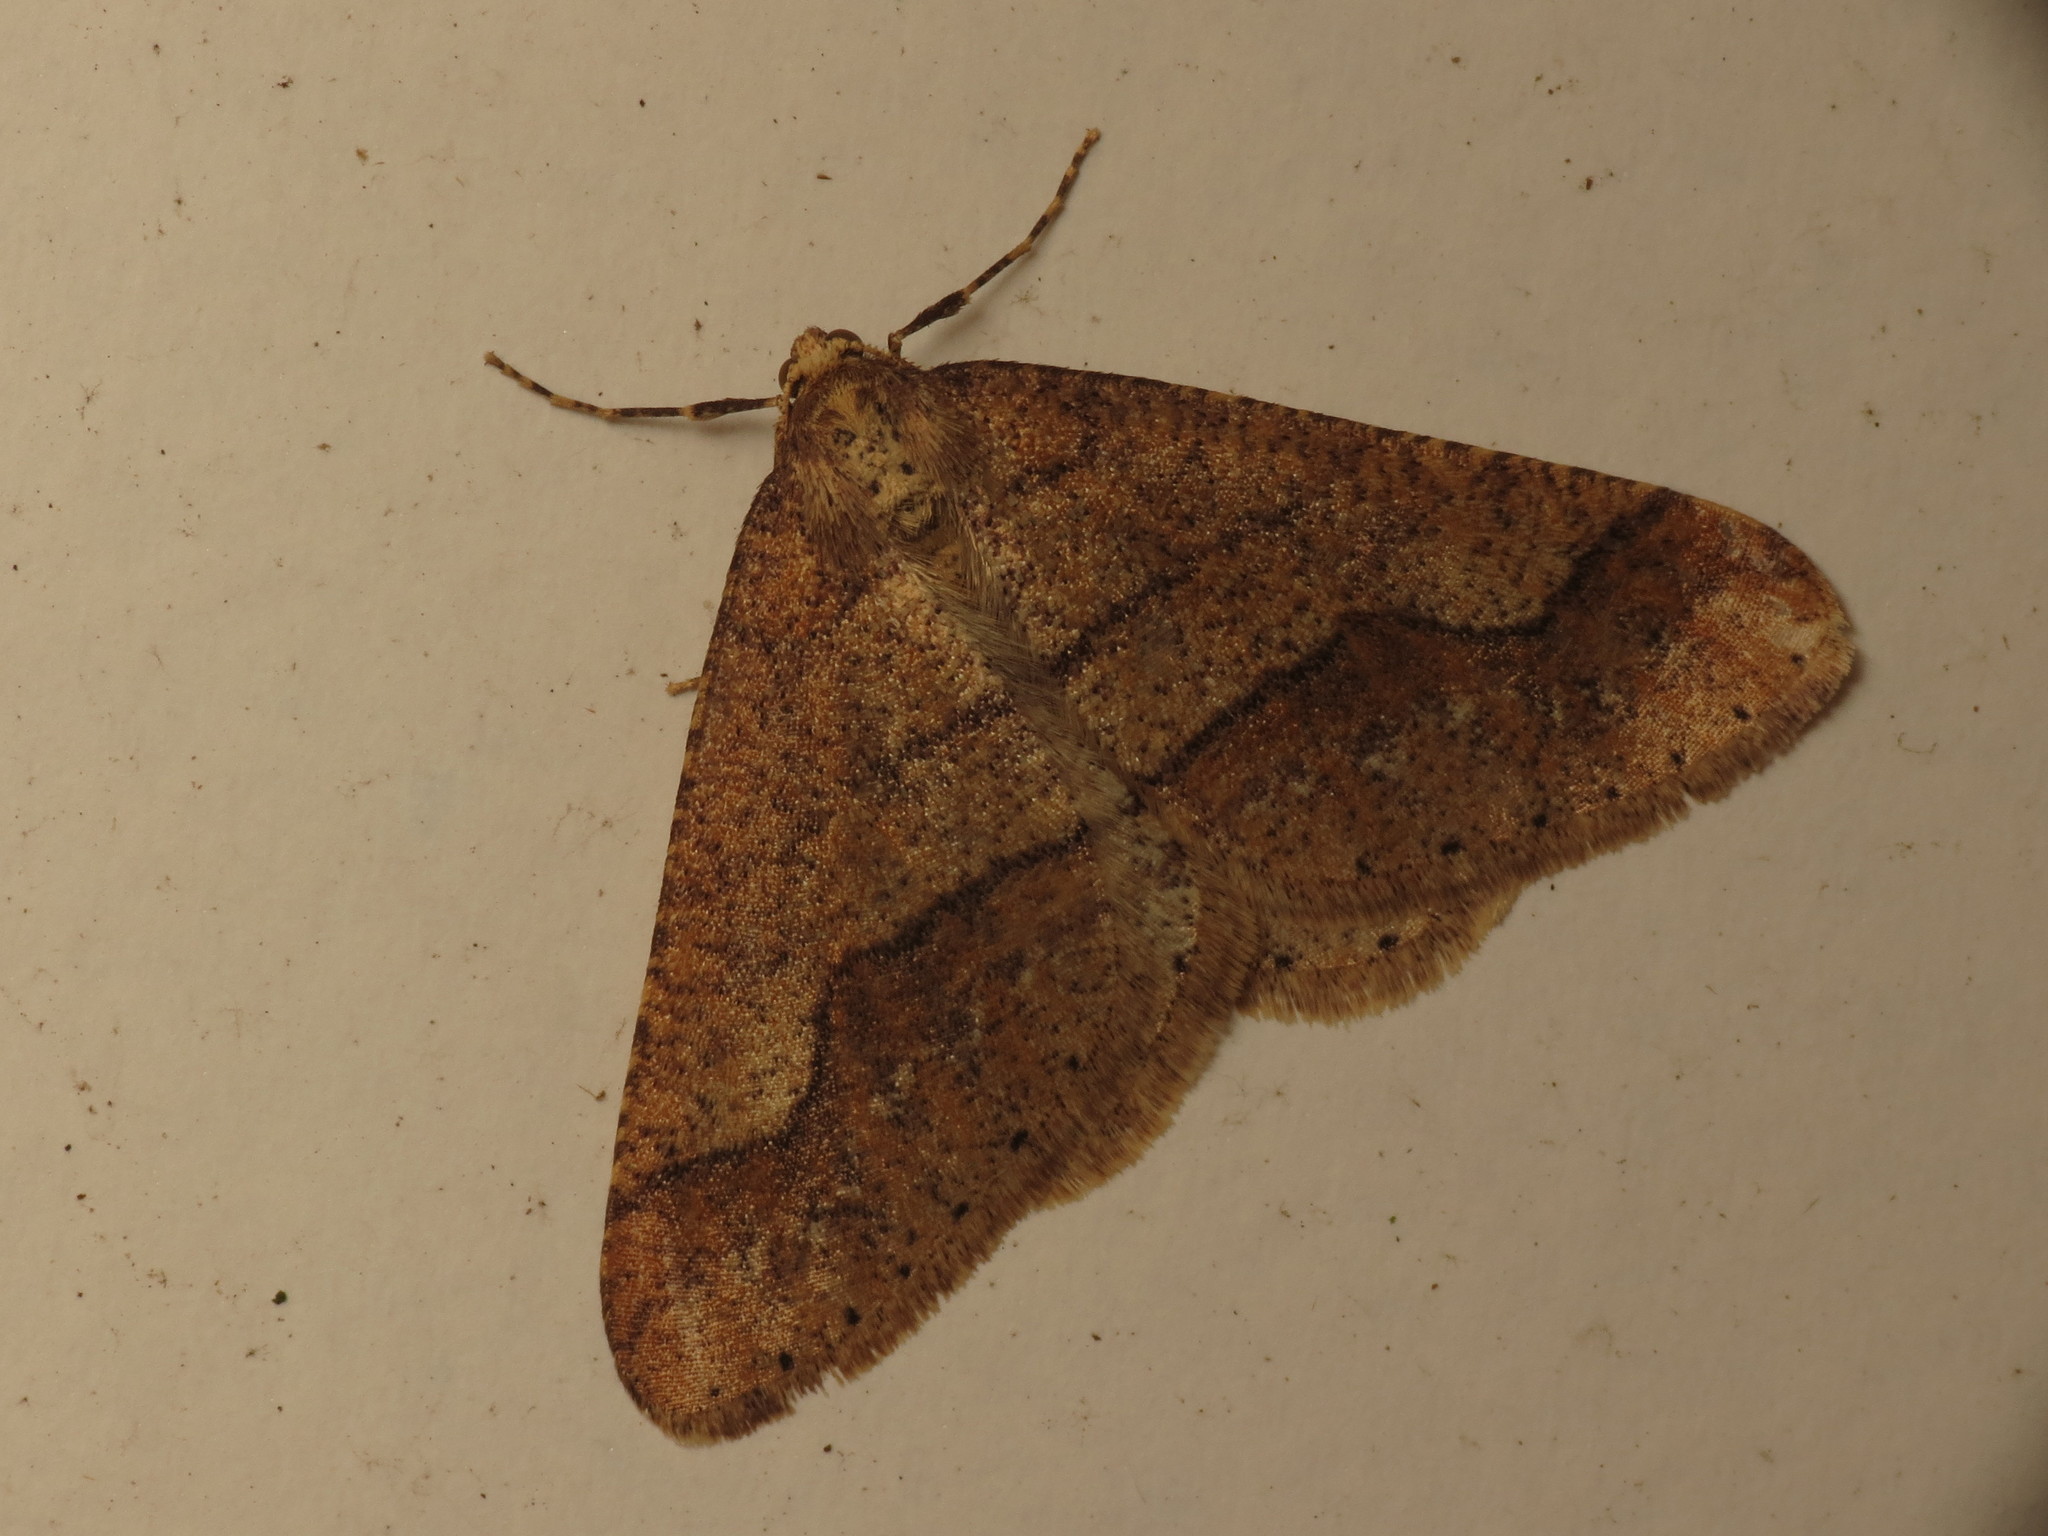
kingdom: Animalia
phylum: Arthropoda
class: Insecta
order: Lepidoptera
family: Geometridae
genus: Agriopis
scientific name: Agriopis marginaria
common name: Dotted border
